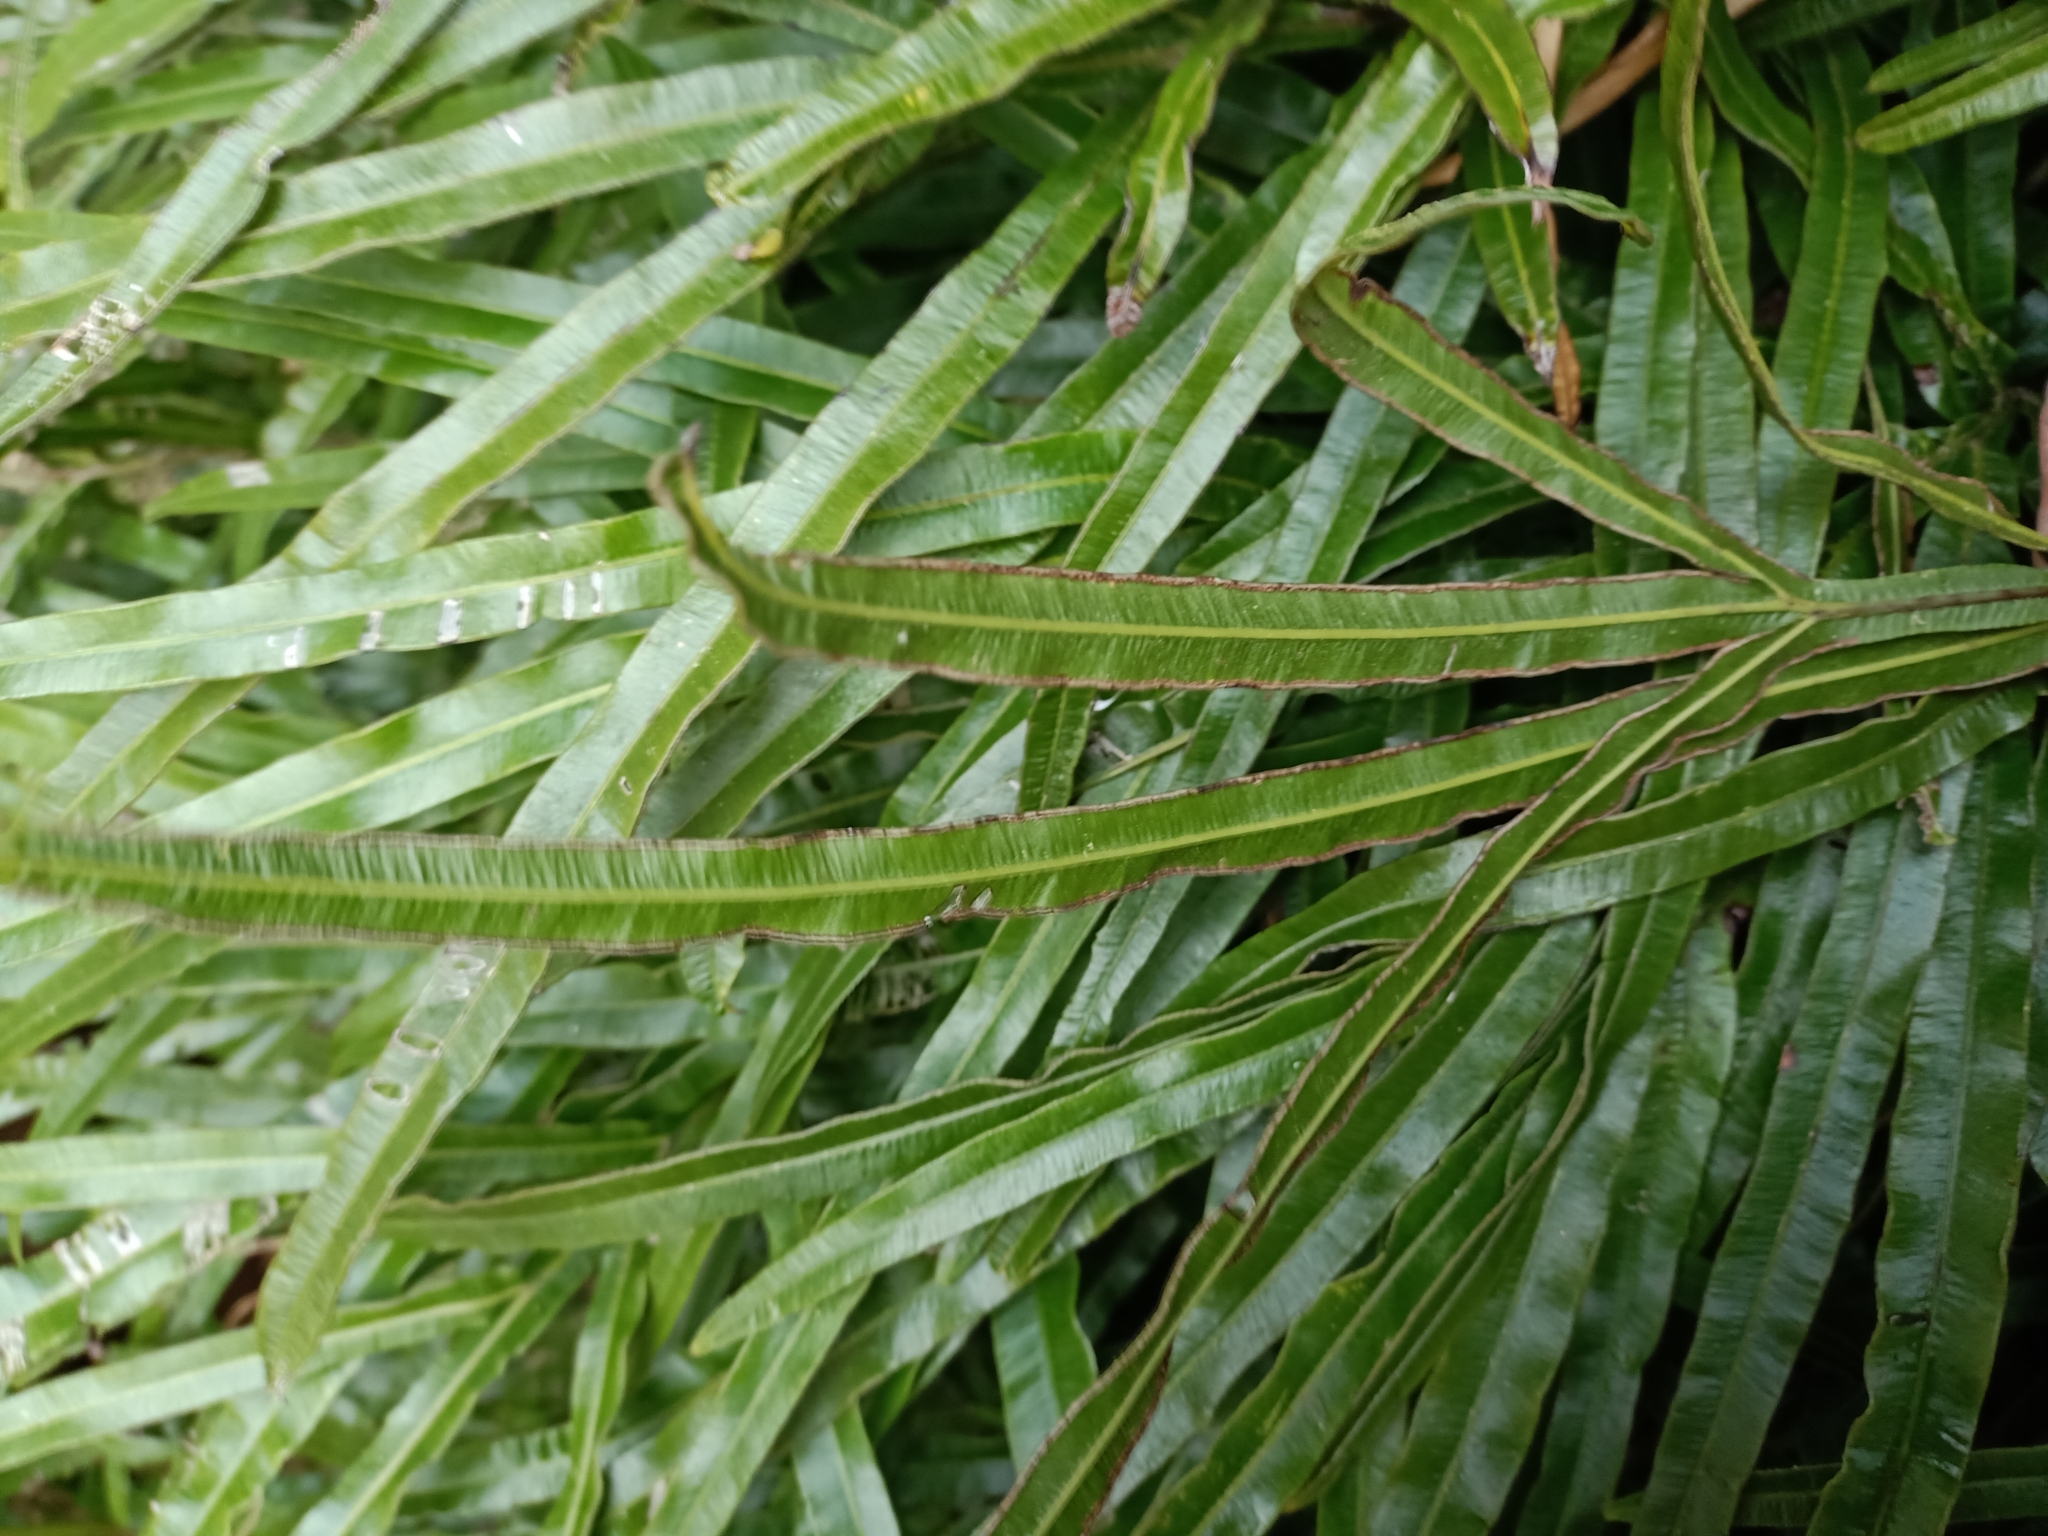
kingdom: Plantae
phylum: Tracheophyta
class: Polypodiopsida
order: Polypodiales
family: Pteridaceae
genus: Pteris
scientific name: Pteris cretica
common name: Ribbon fern
